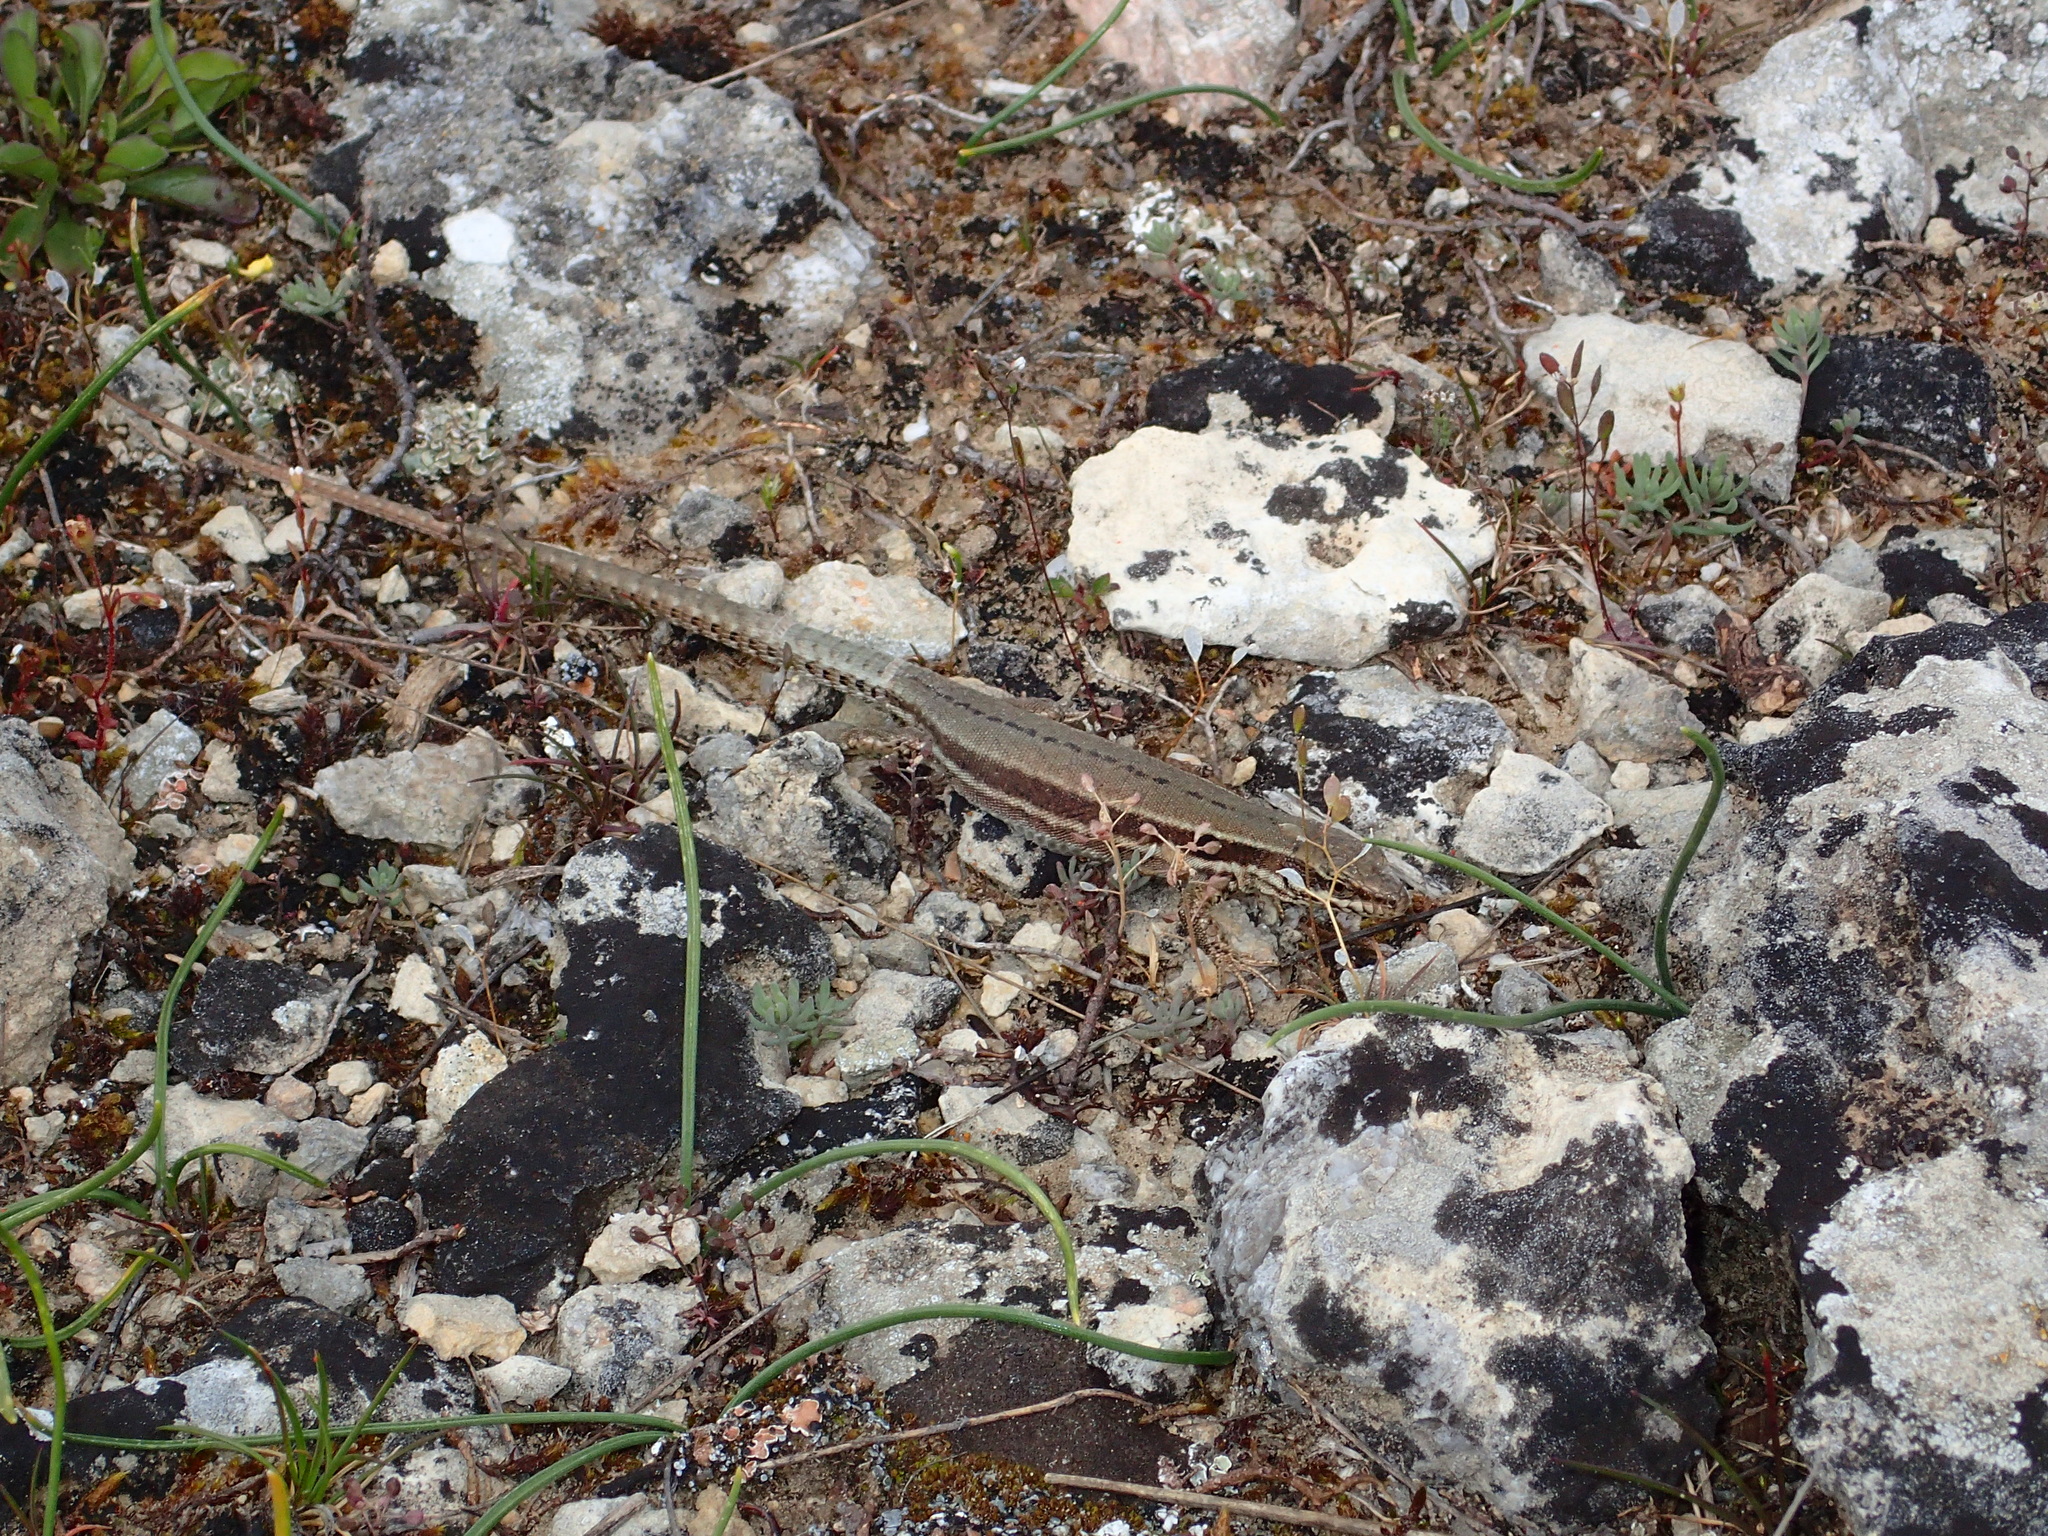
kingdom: Animalia
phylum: Chordata
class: Squamata
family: Lacertidae
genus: Podarcis
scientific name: Podarcis muralis
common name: Common wall lizard
